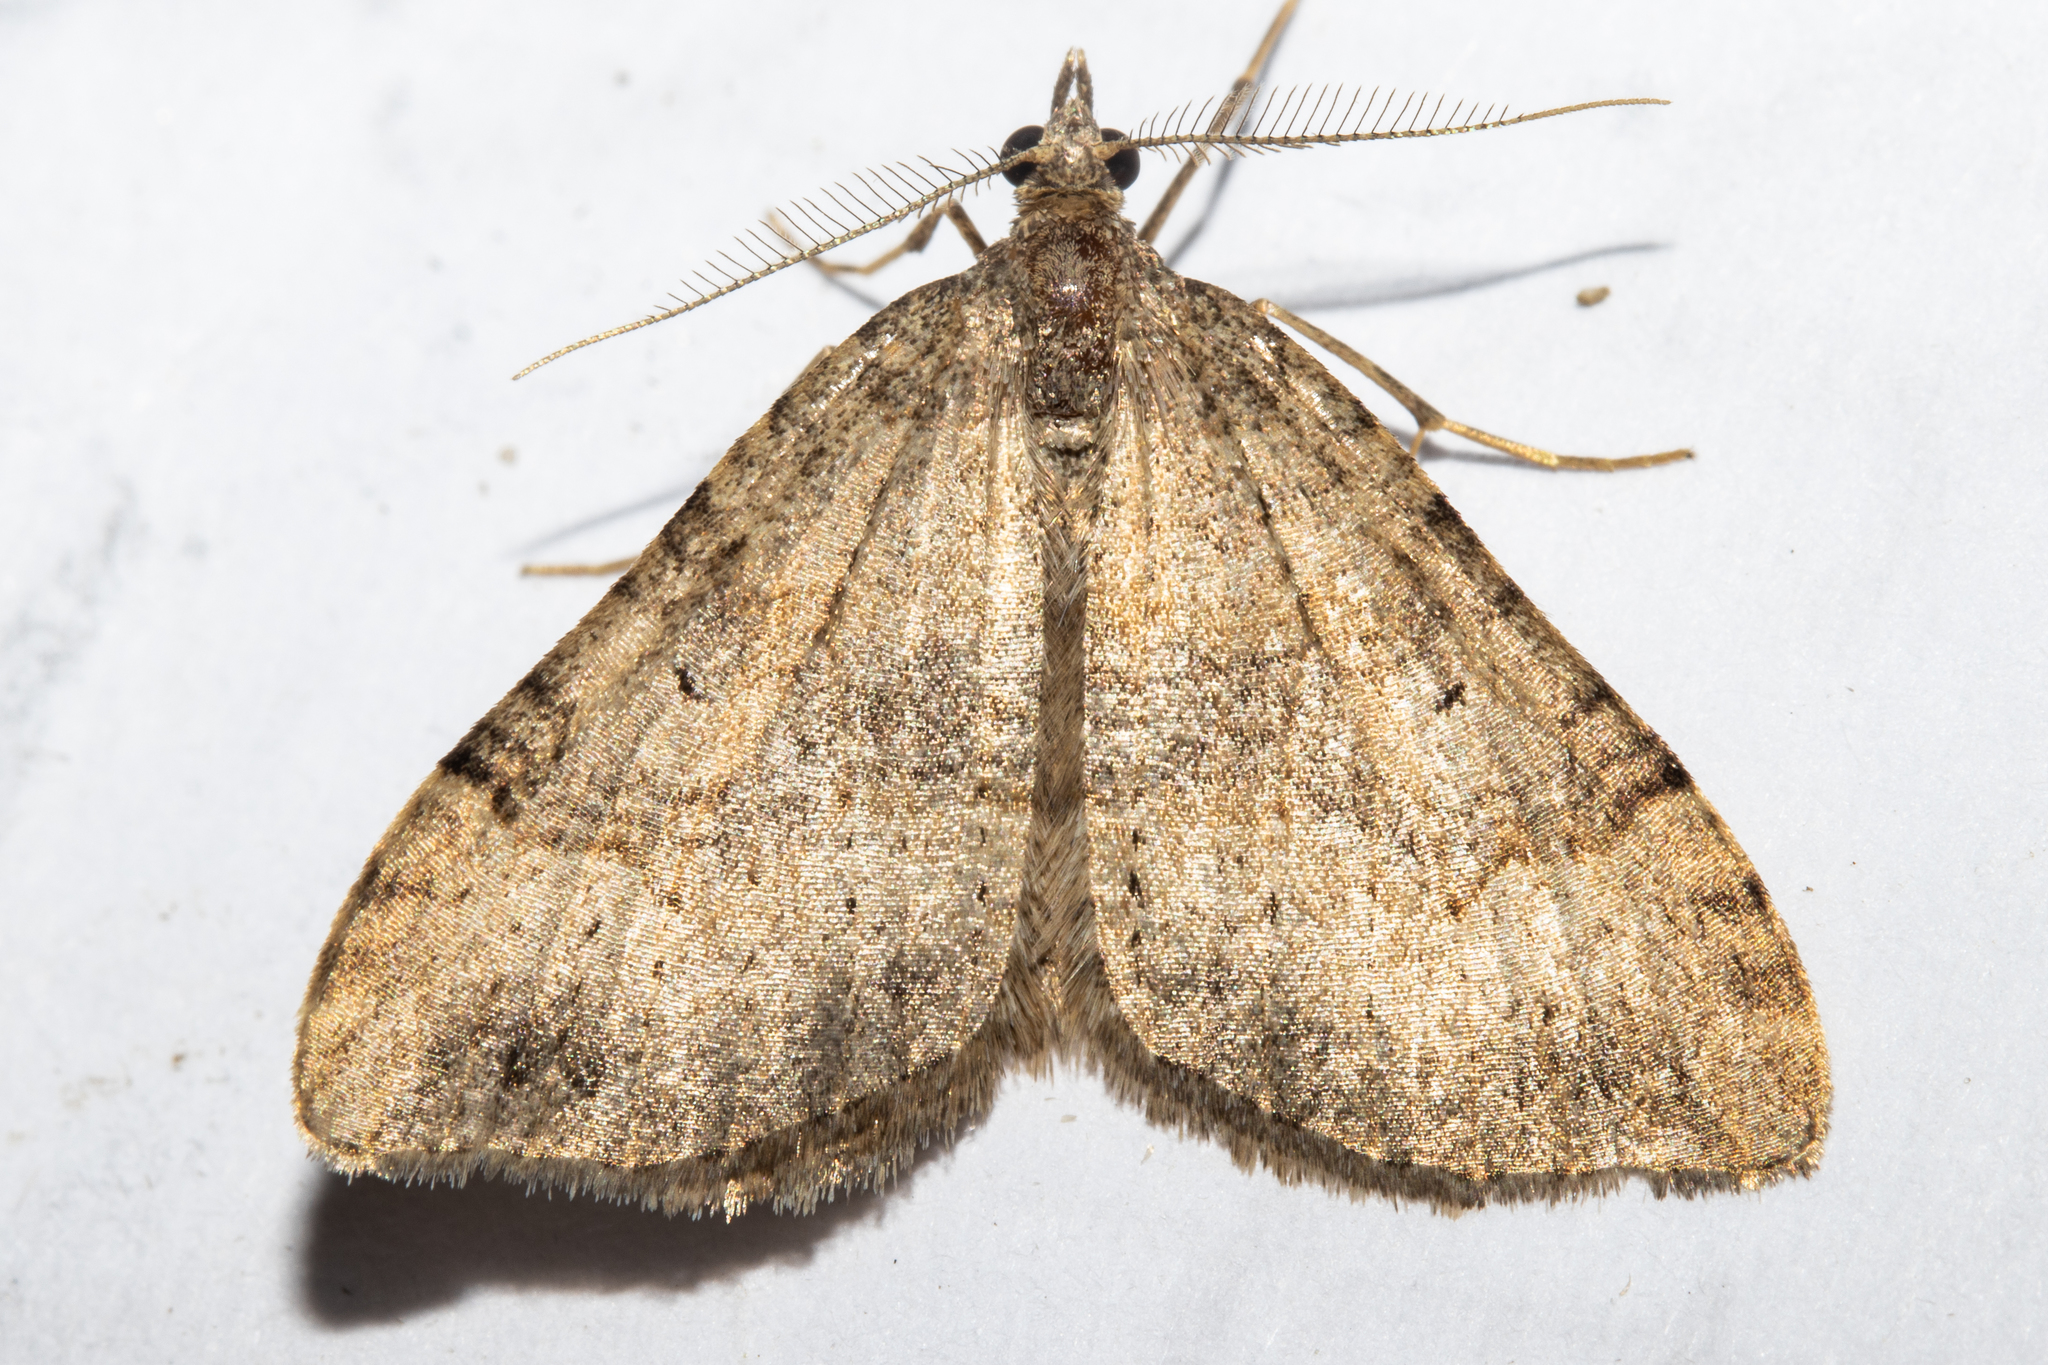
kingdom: Animalia
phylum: Arthropoda
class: Insecta
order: Lepidoptera
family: Geometridae
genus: Epyaxa
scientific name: Epyaxa rosearia
